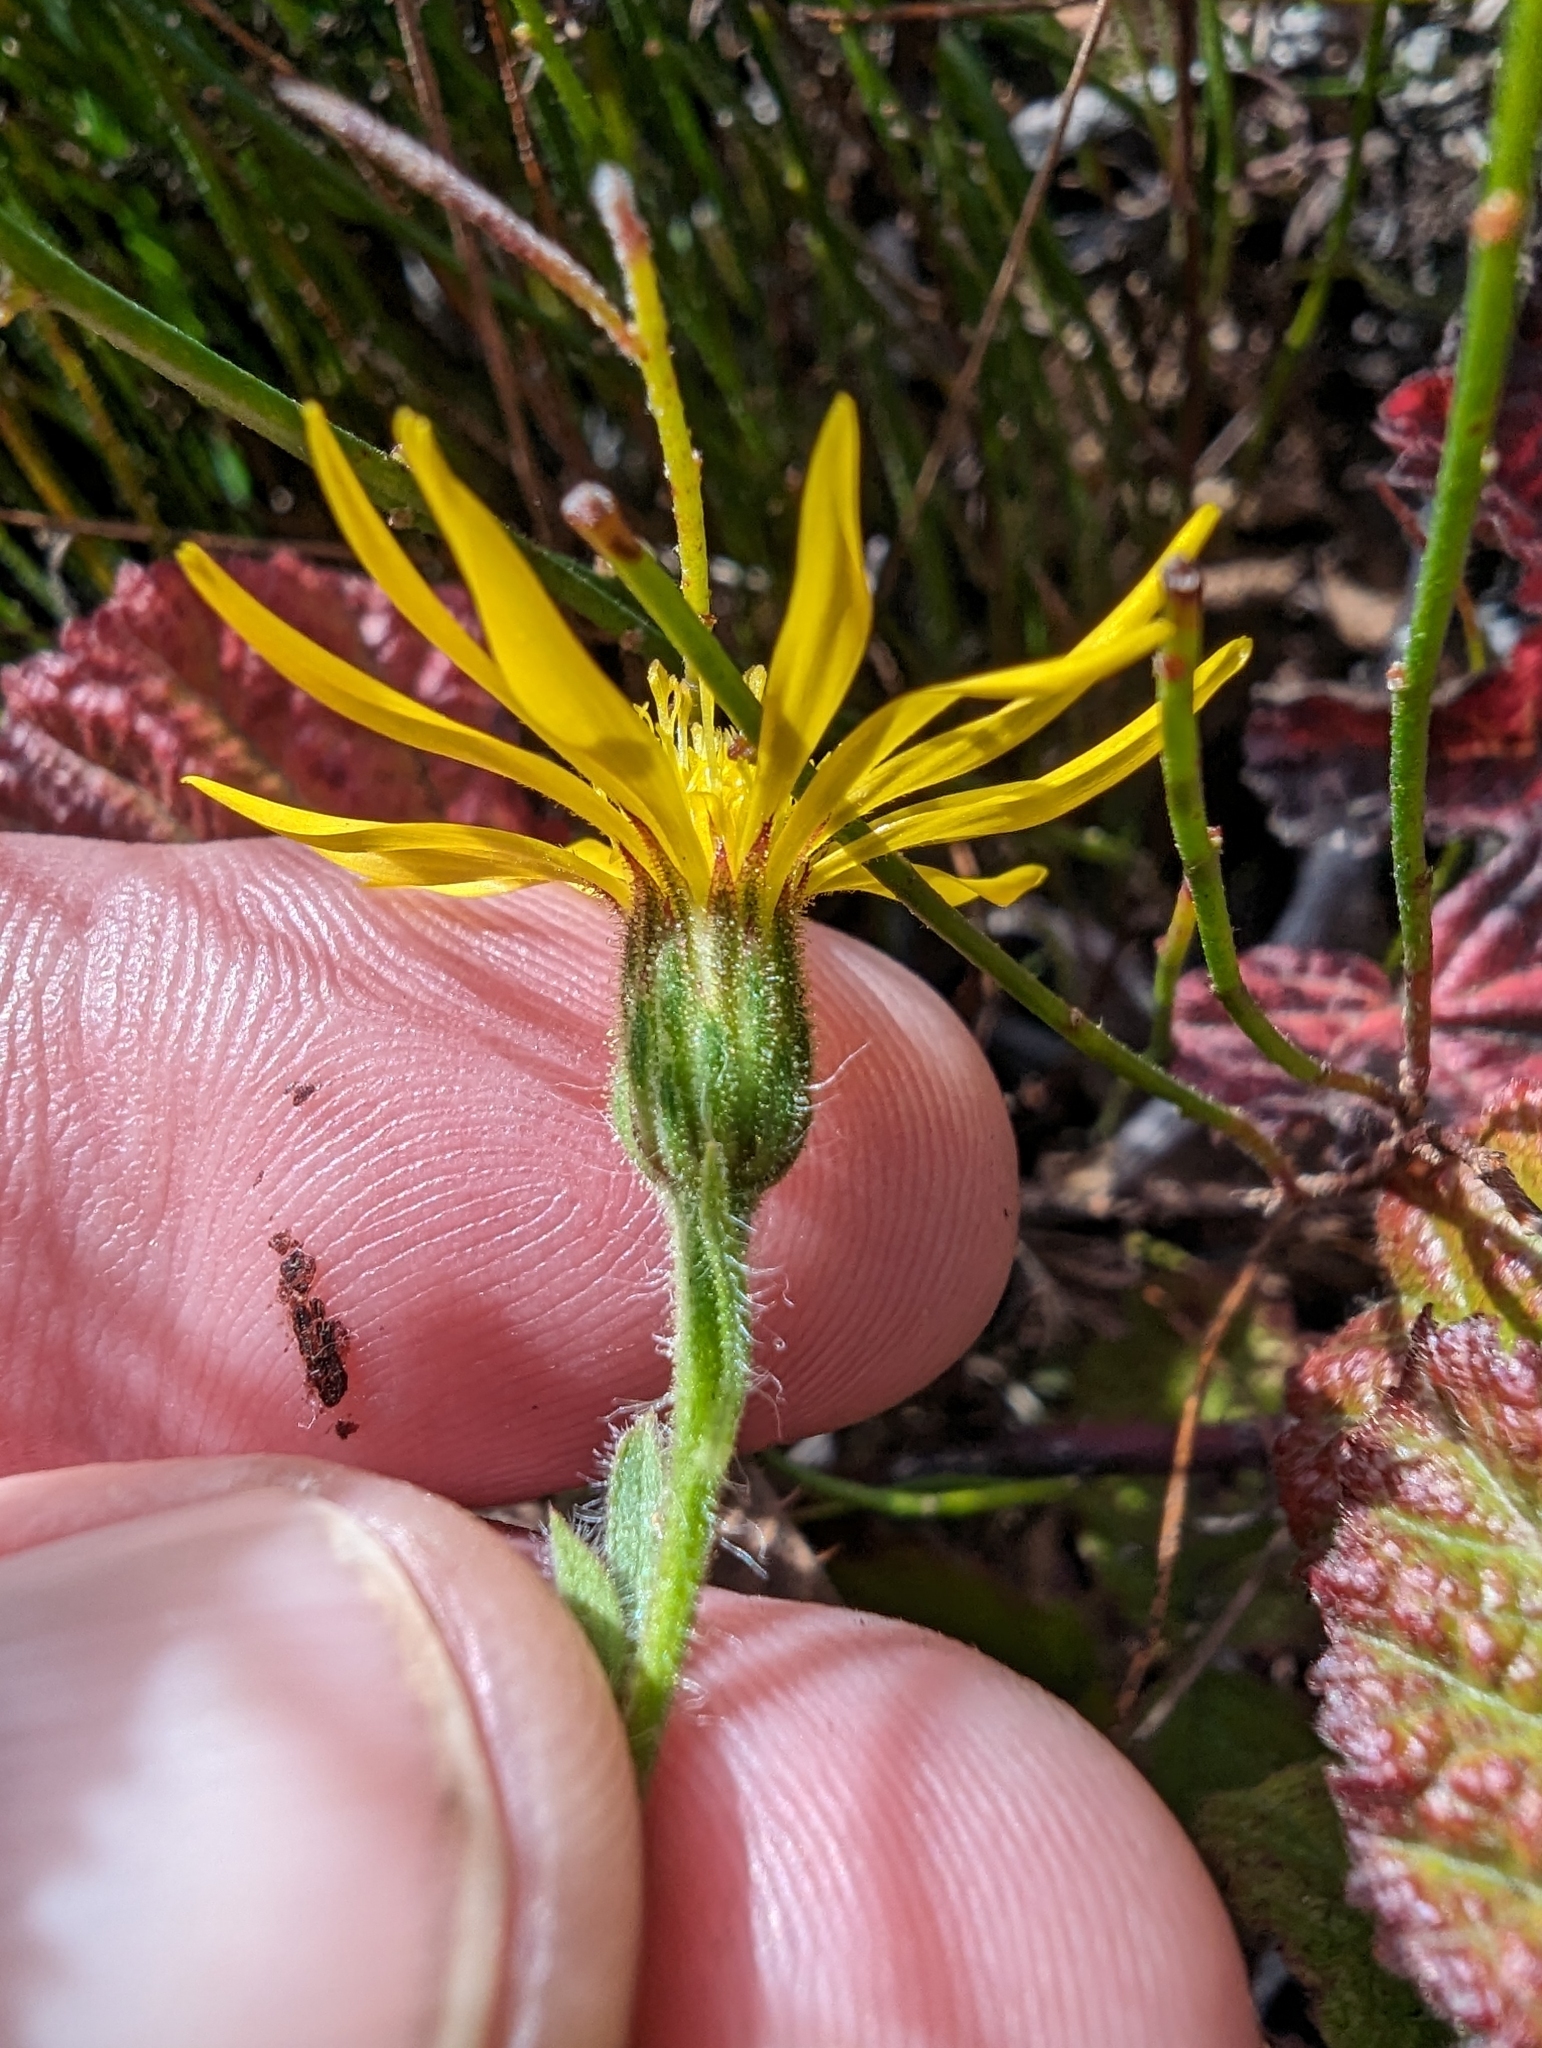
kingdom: Plantae
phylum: Tracheophyta
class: Magnoliopsida
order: Asterales
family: Asteraceae
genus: Heterotheca
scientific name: Heterotheca grandiflora
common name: Telegraphweed
